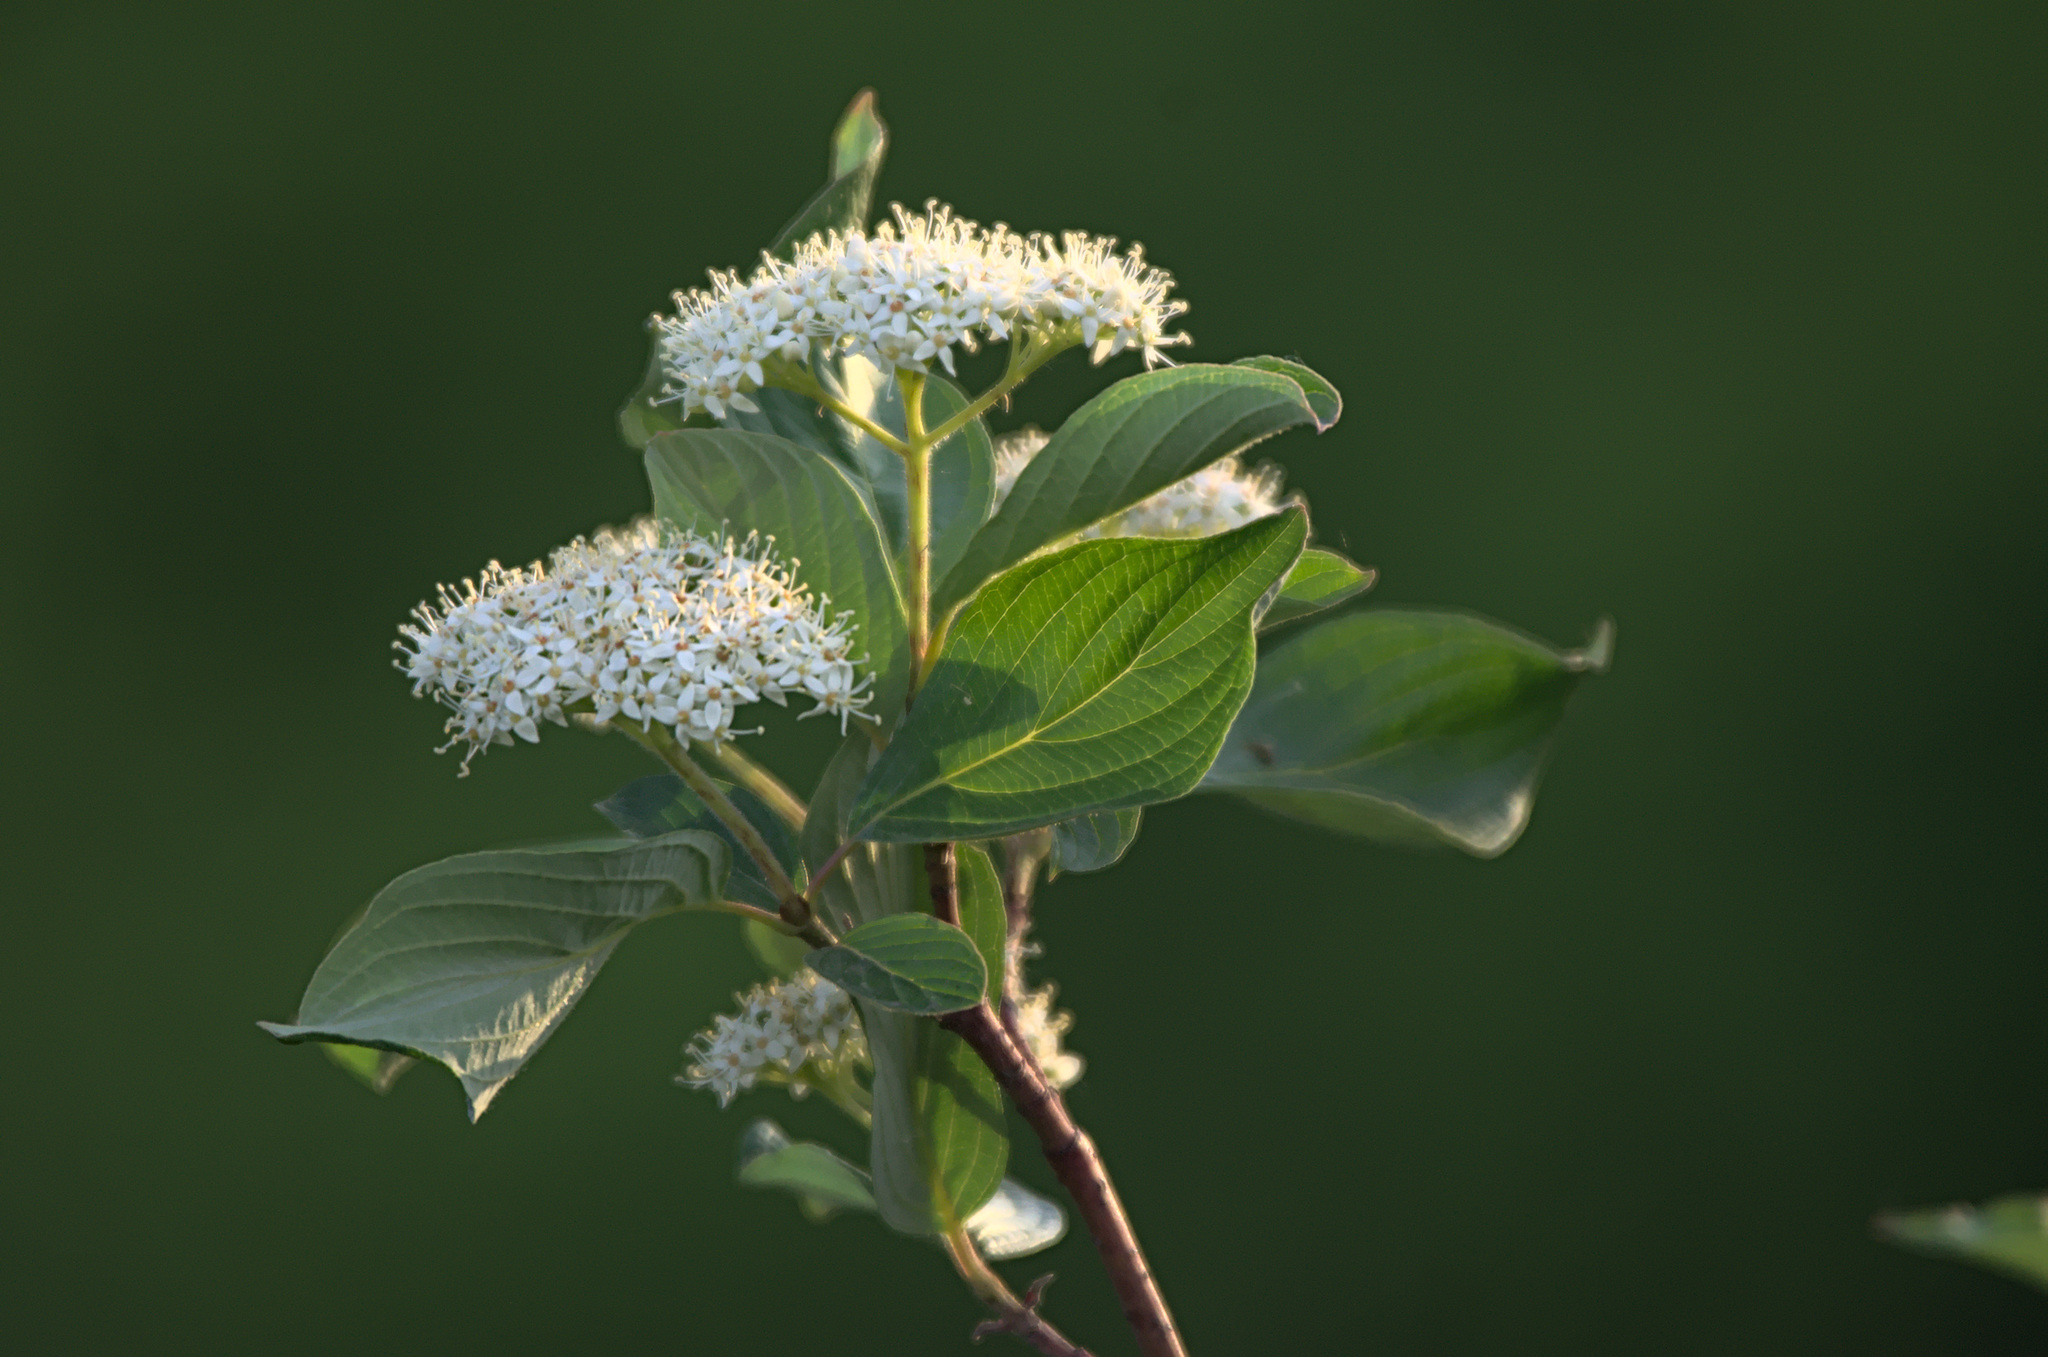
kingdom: Plantae
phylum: Tracheophyta
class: Magnoliopsida
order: Cornales
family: Cornaceae
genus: Cornus
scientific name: Cornus alba
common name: White dogwood
